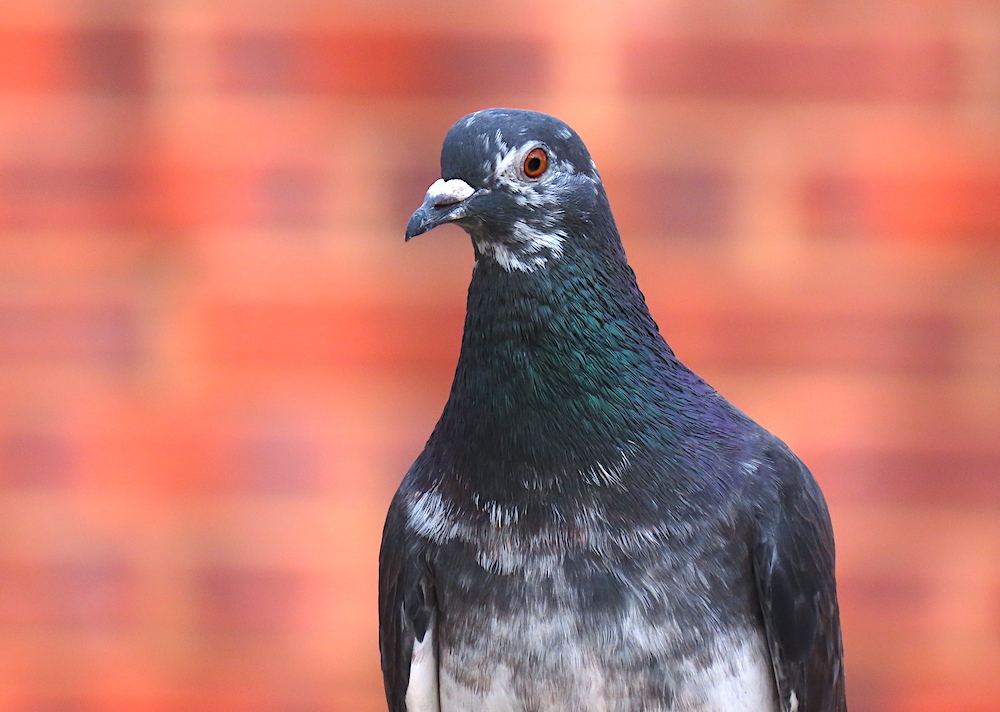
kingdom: Animalia
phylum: Chordata
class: Aves
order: Columbiformes
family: Columbidae
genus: Columba
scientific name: Columba livia
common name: Rock pigeon
